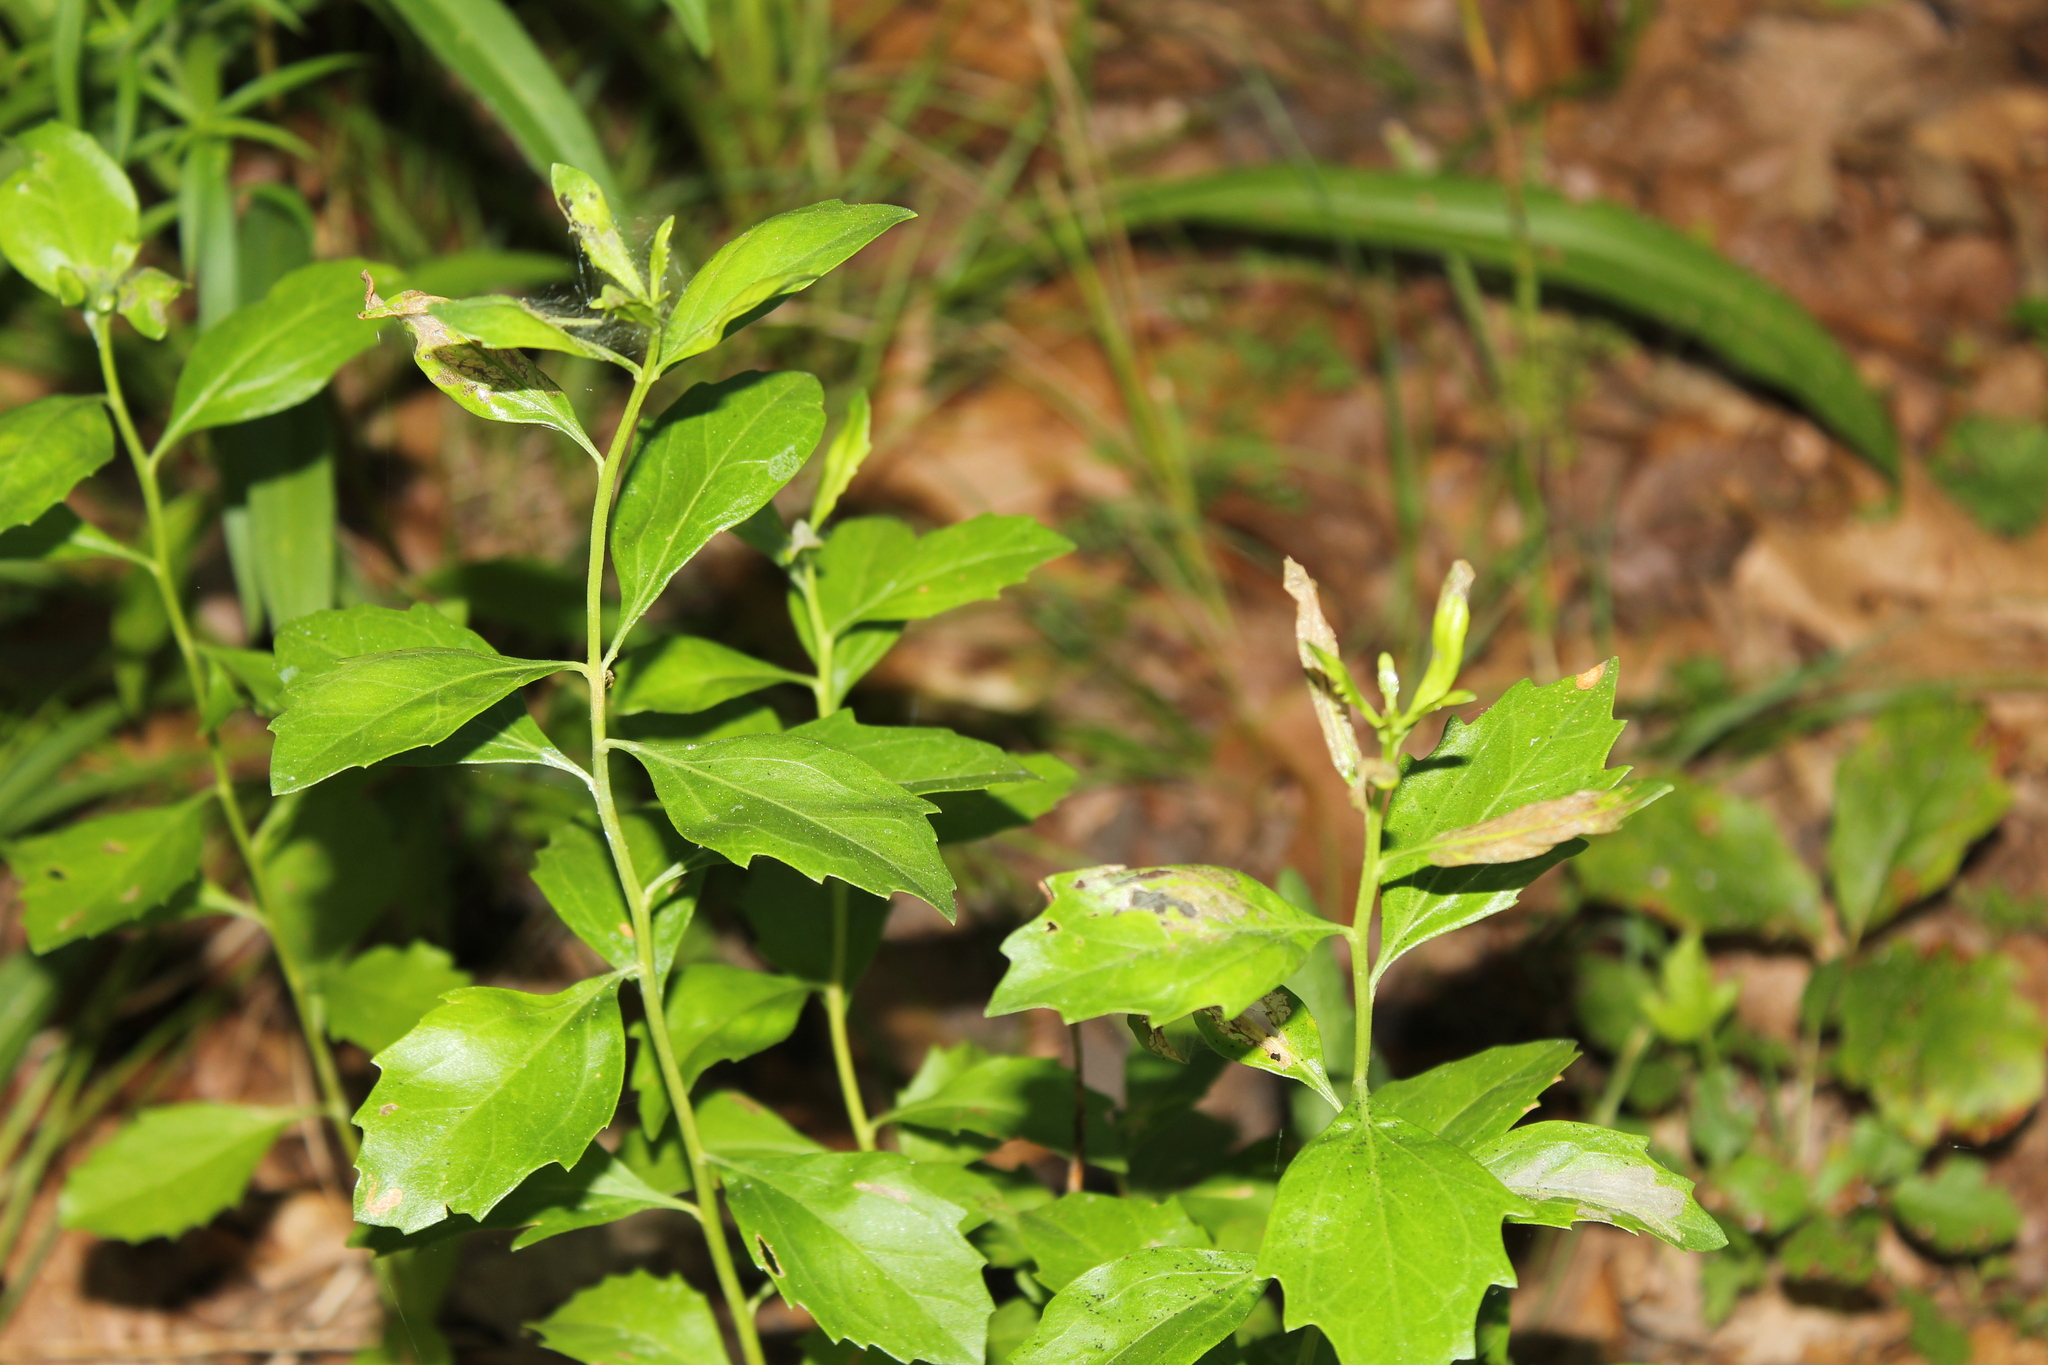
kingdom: Plantae
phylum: Tracheophyta
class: Magnoliopsida
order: Asterales
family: Asteraceae
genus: Baccharis
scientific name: Baccharis halimifolia
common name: Eastern baccharis
